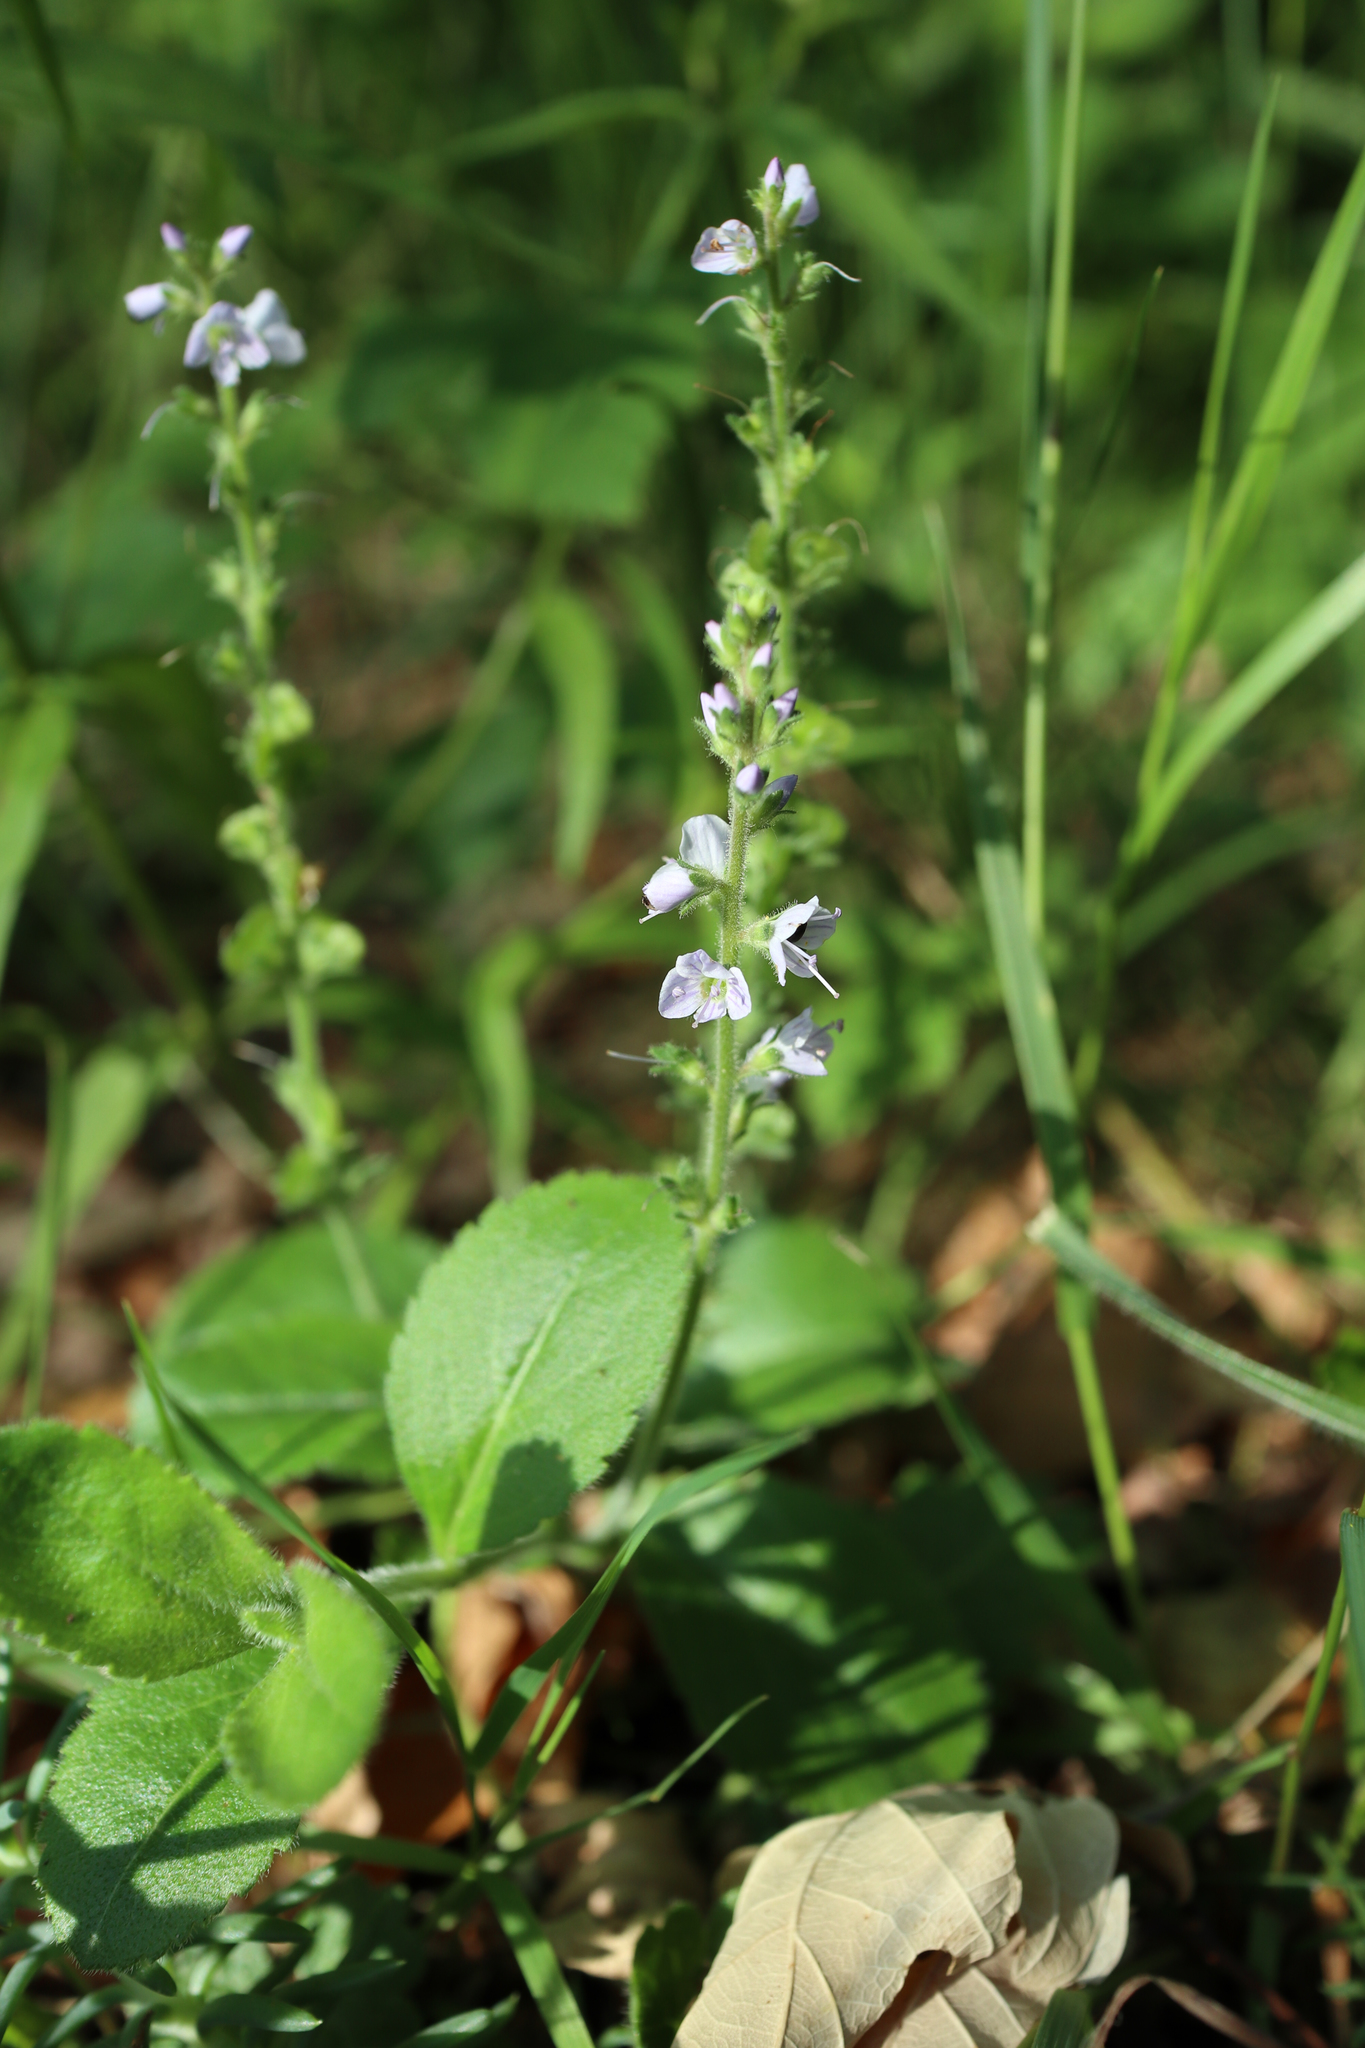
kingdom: Plantae
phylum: Tracheophyta
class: Magnoliopsida
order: Lamiales
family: Plantaginaceae
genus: Veronica
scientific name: Veronica officinalis
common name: Common speedwell
